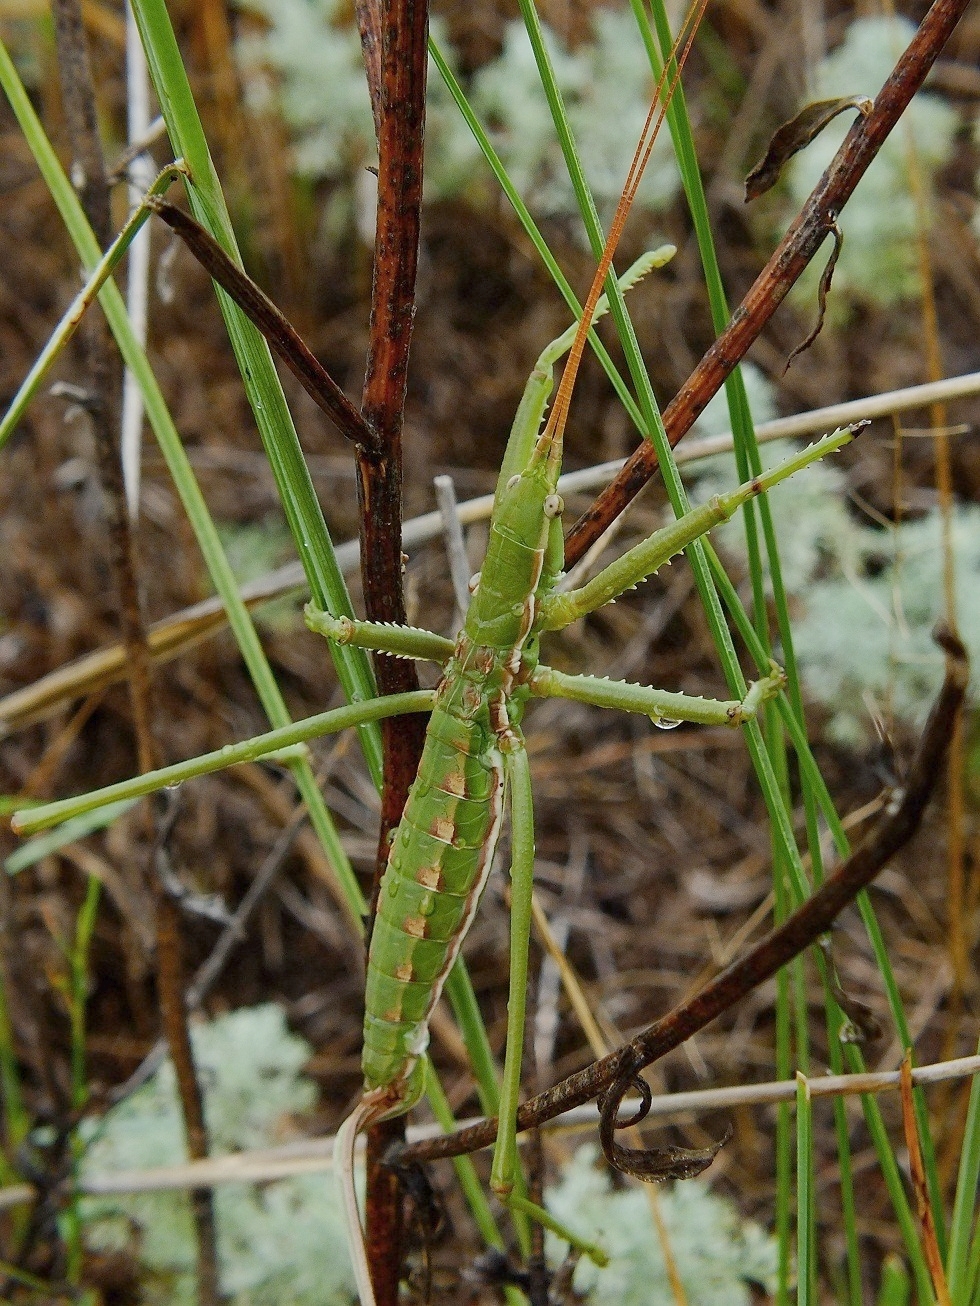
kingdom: Animalia
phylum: Arthropoda
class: Insecta
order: Orthoptera
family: Tettigoniidae
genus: Saga
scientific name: Saga pedo
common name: Common predatory bush-cricket
